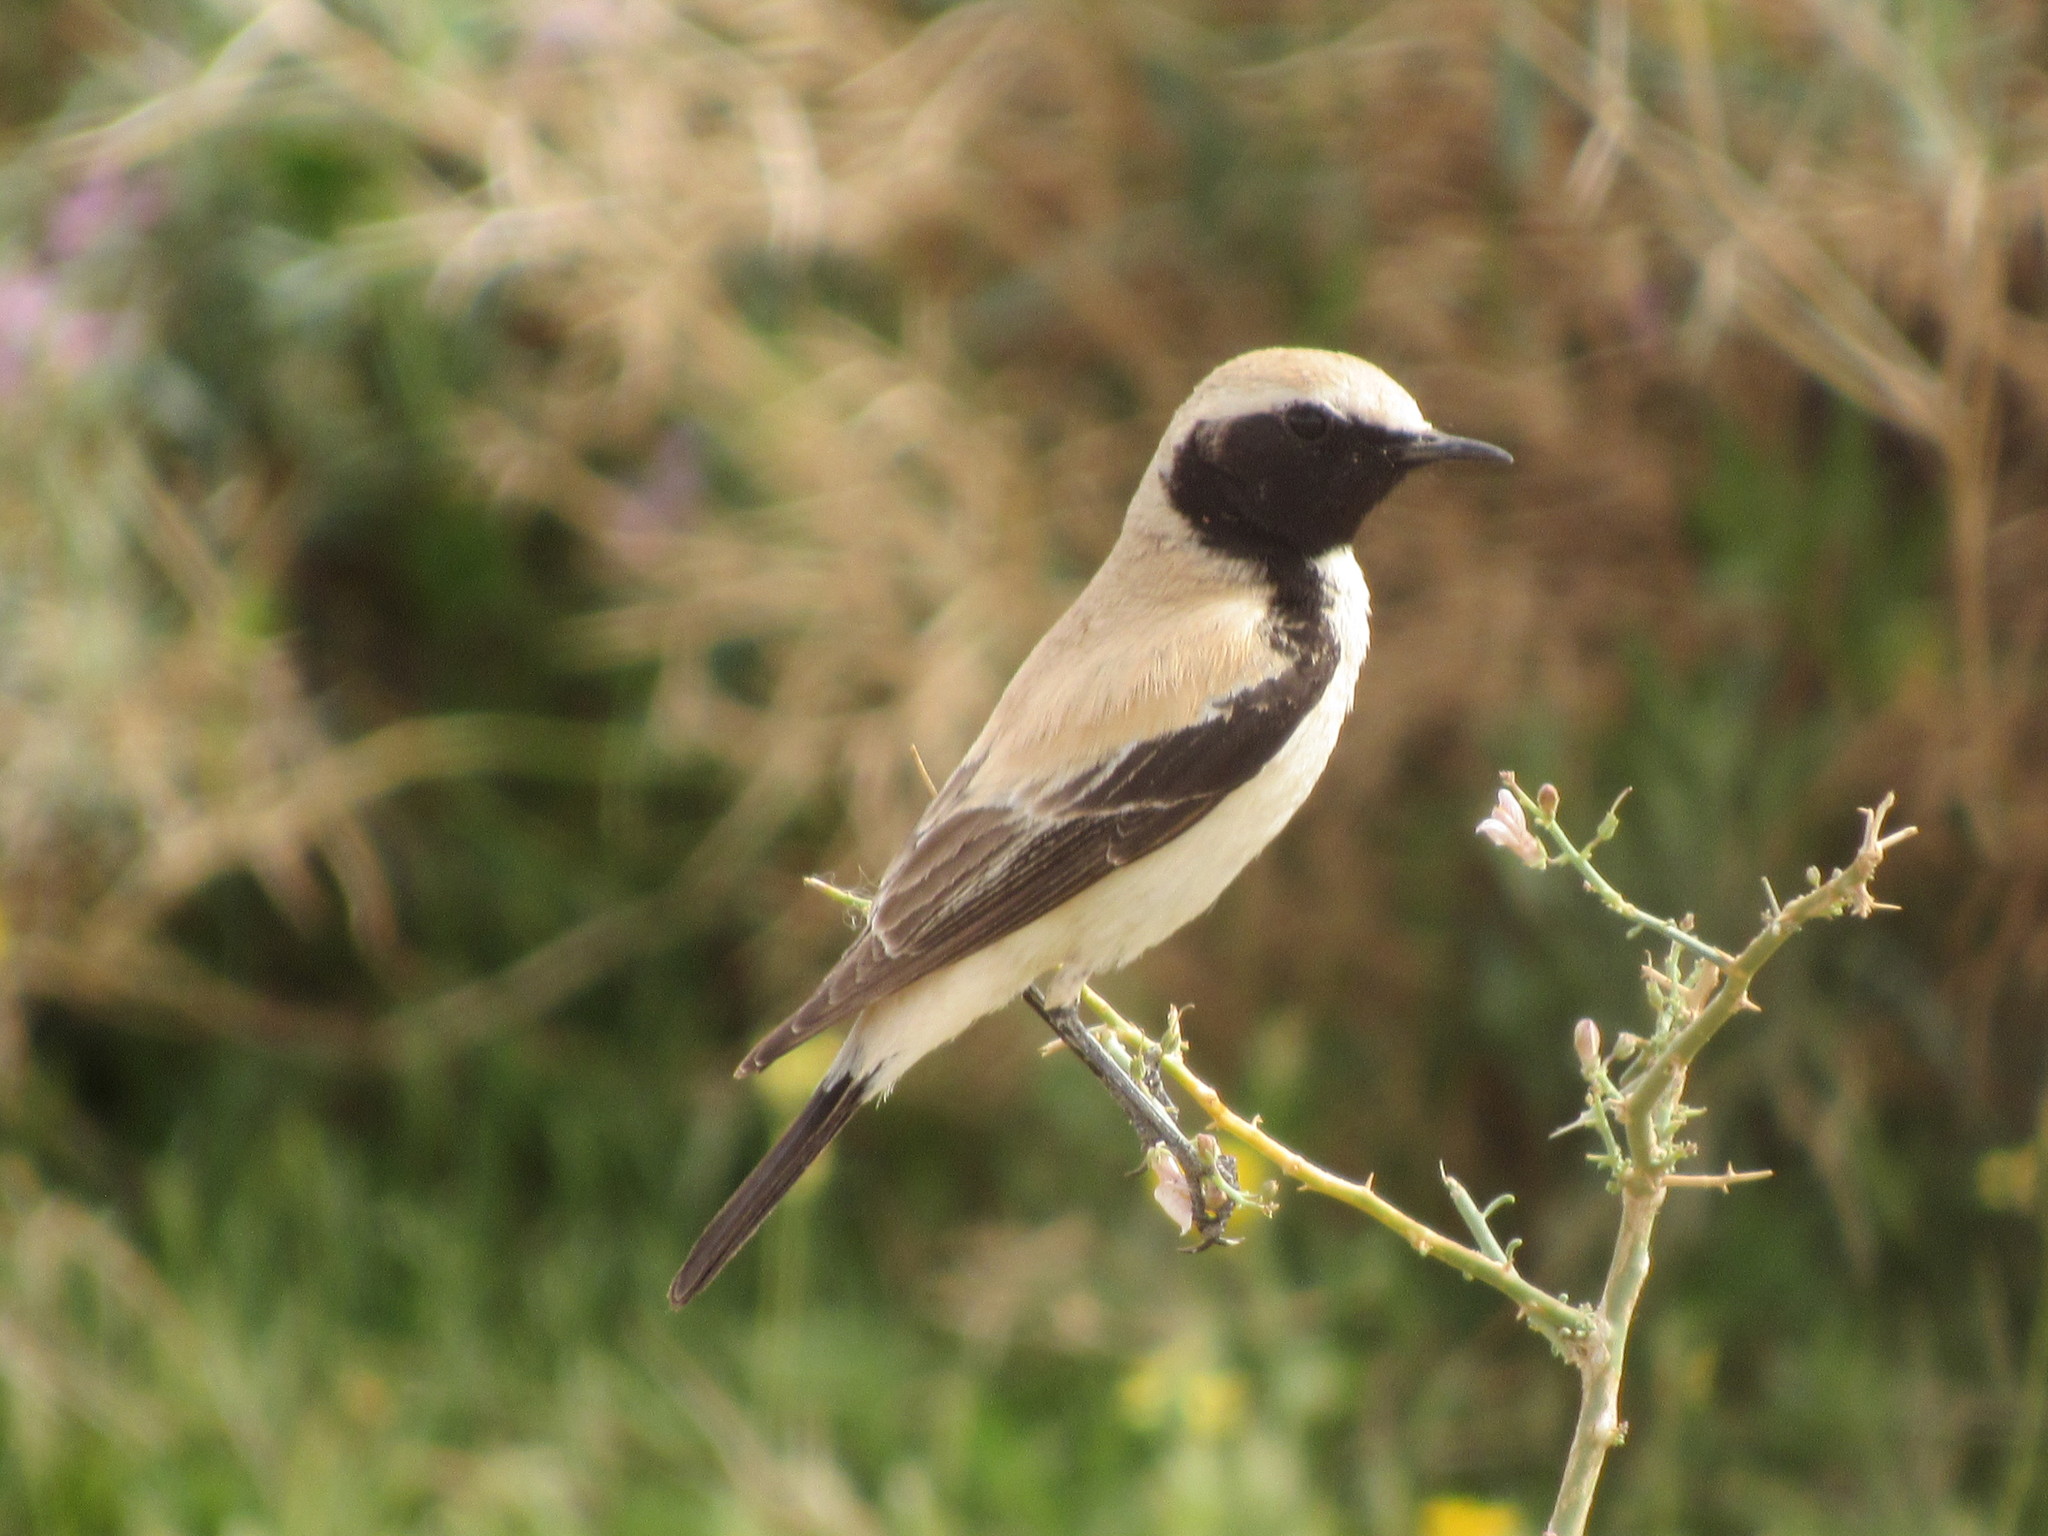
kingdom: Animalia
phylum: Chordata
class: Aves
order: Passeriformes
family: Muscicapidae
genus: Oenanthe
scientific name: Oenanthe deserti
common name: Desert wheatear
